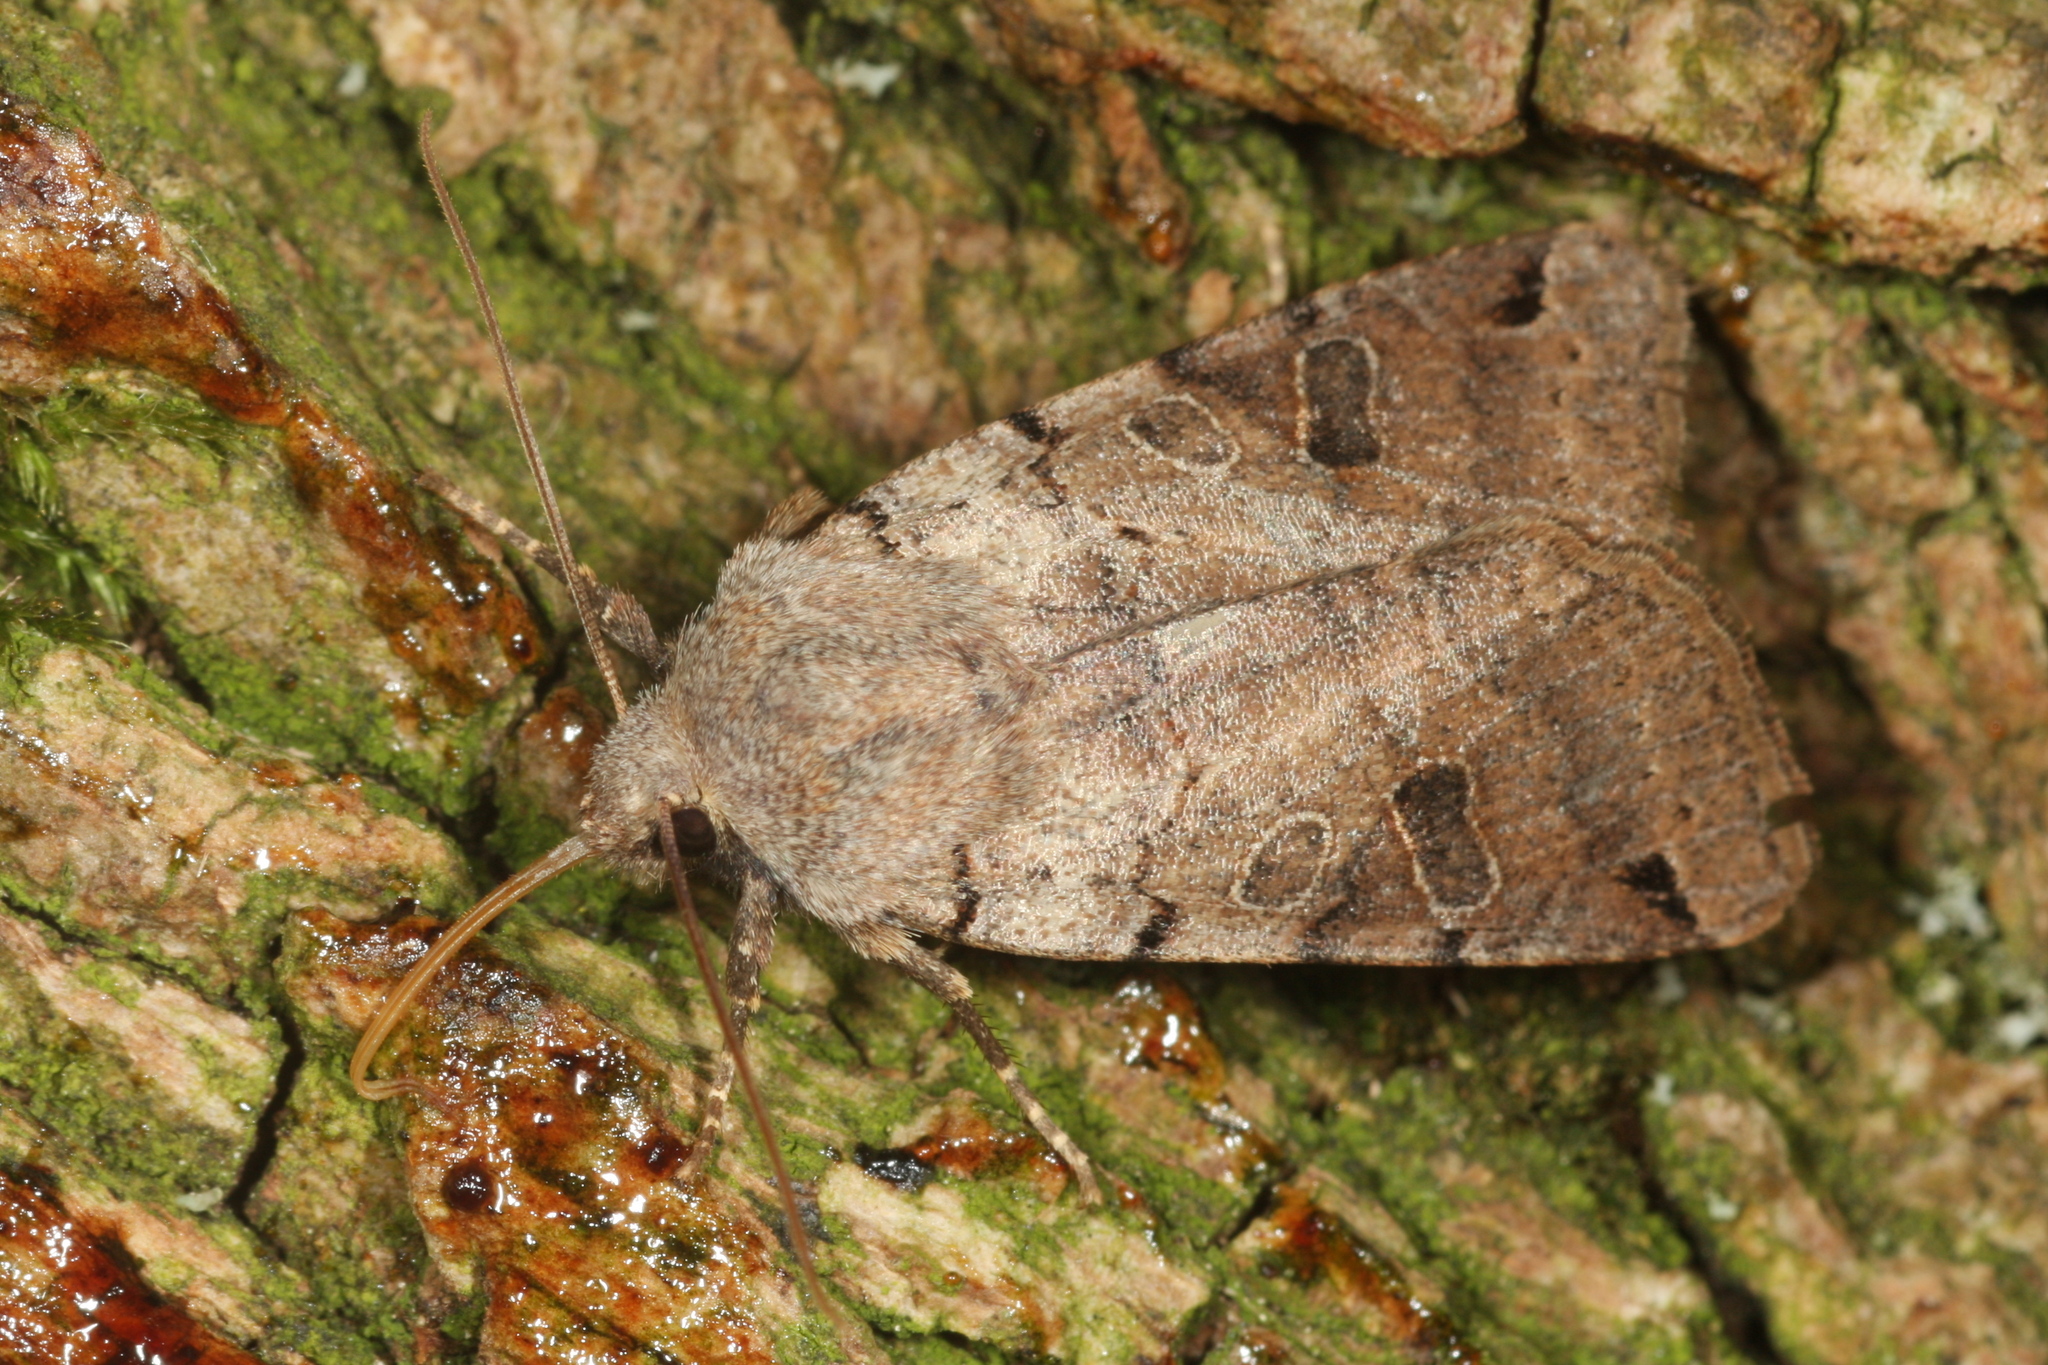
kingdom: Animalia
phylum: Arthropoda
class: Insecta
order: Lepidoptera
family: Noctuidae
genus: Agrochola
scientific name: Agrochola litura
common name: Brown-spot pinion
